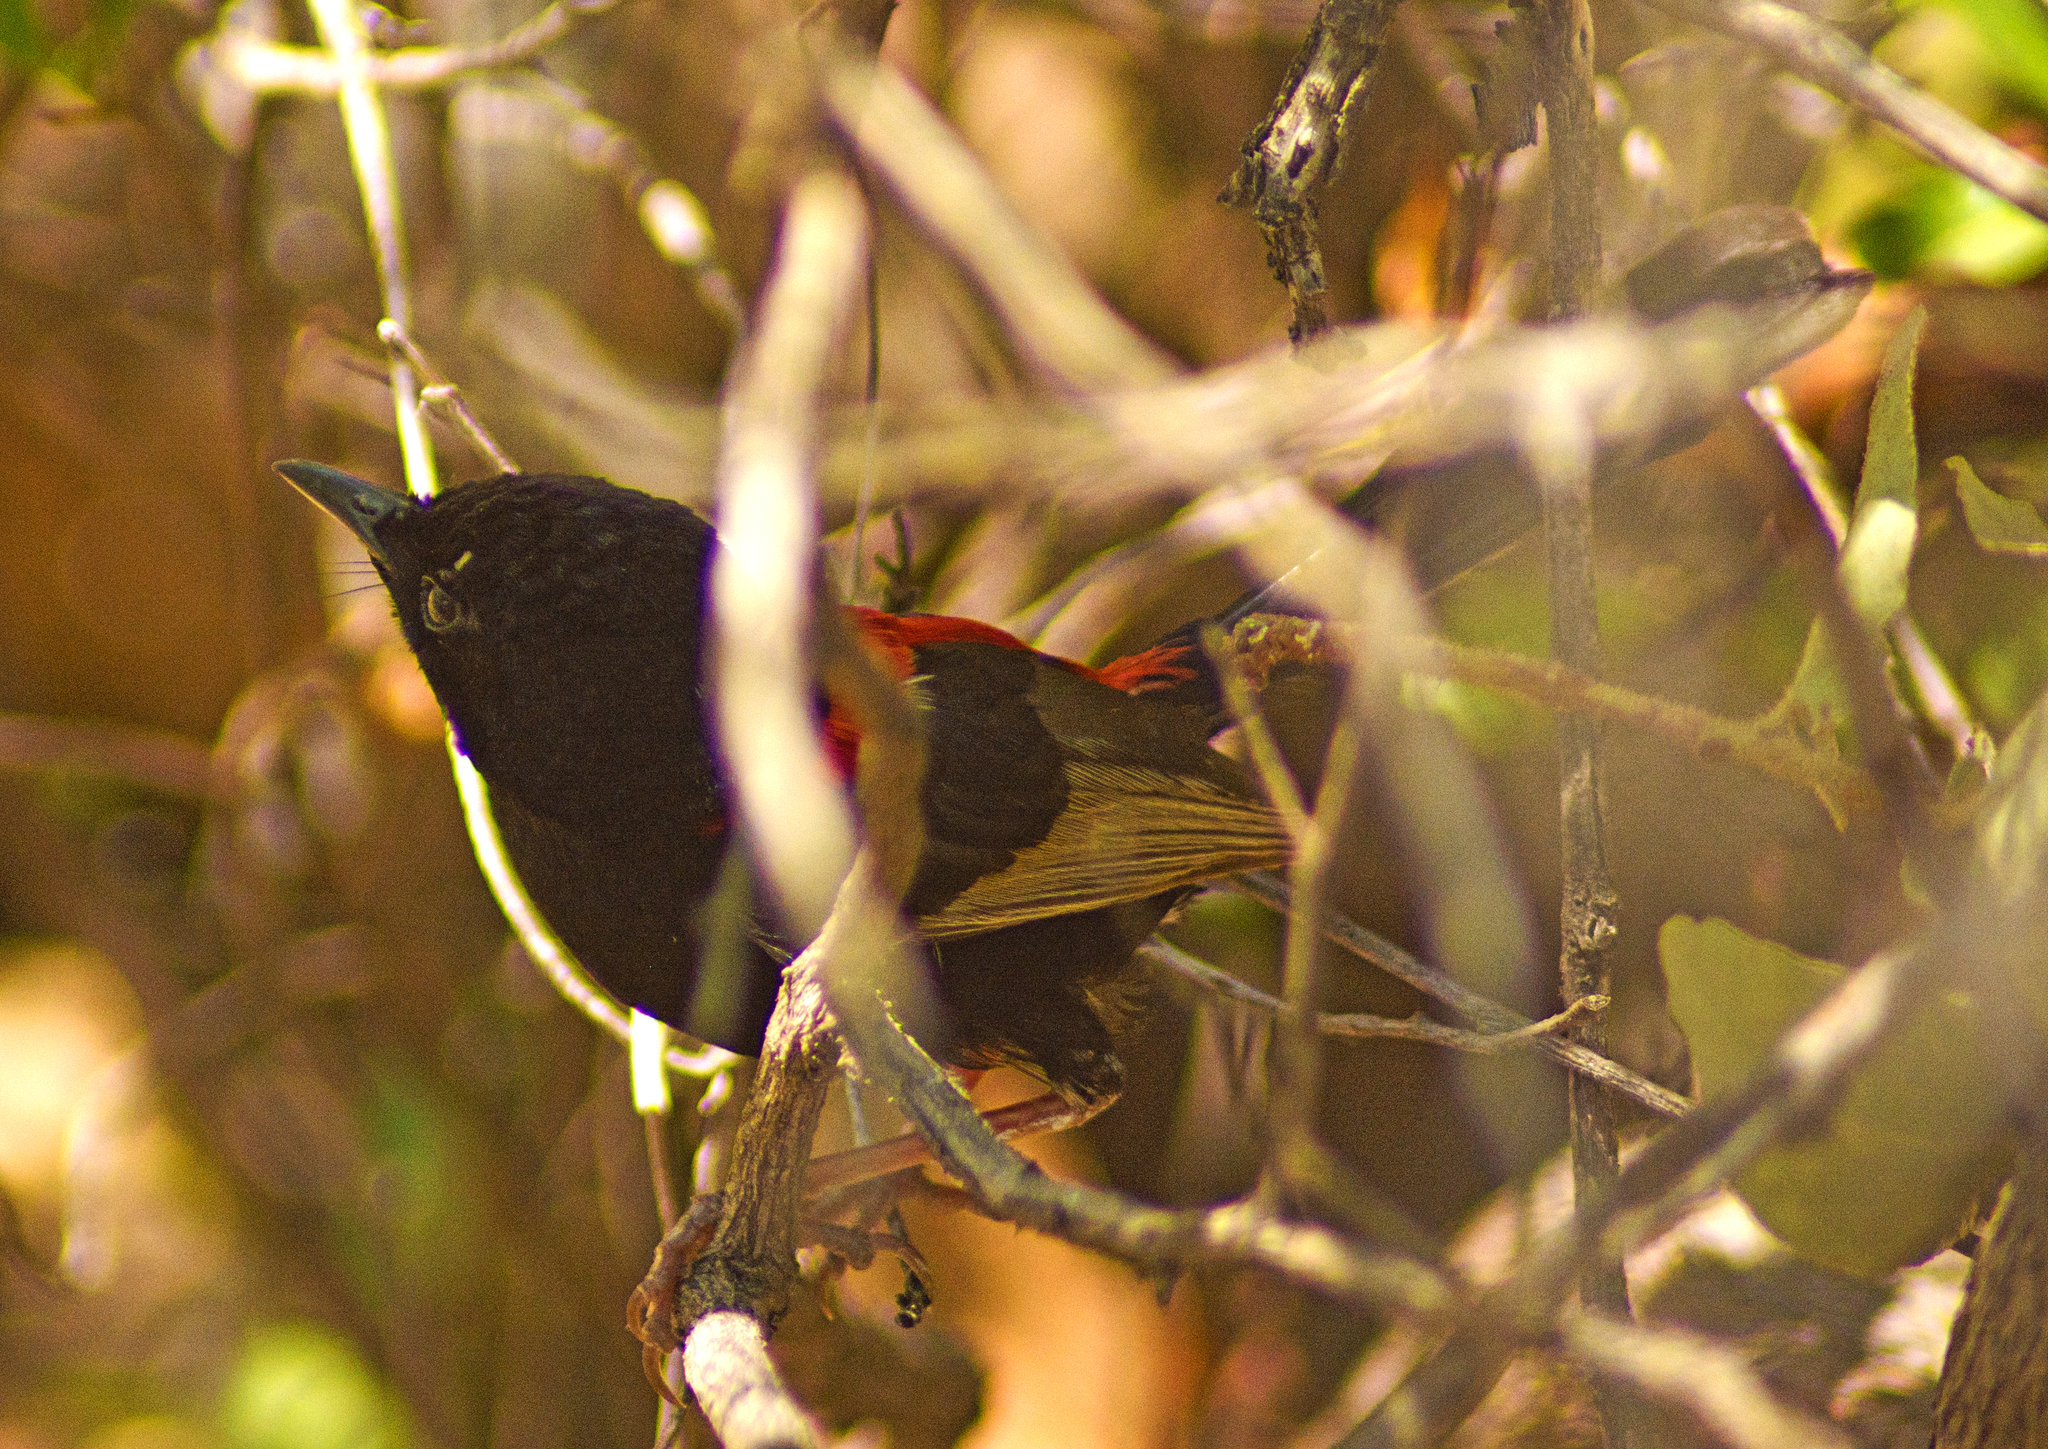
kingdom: Animalia
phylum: Chordata
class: Aves
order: Passeriformes
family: Maluridae
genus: Malurus
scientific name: Malurus melanocephalus
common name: Red-backed fairywren
